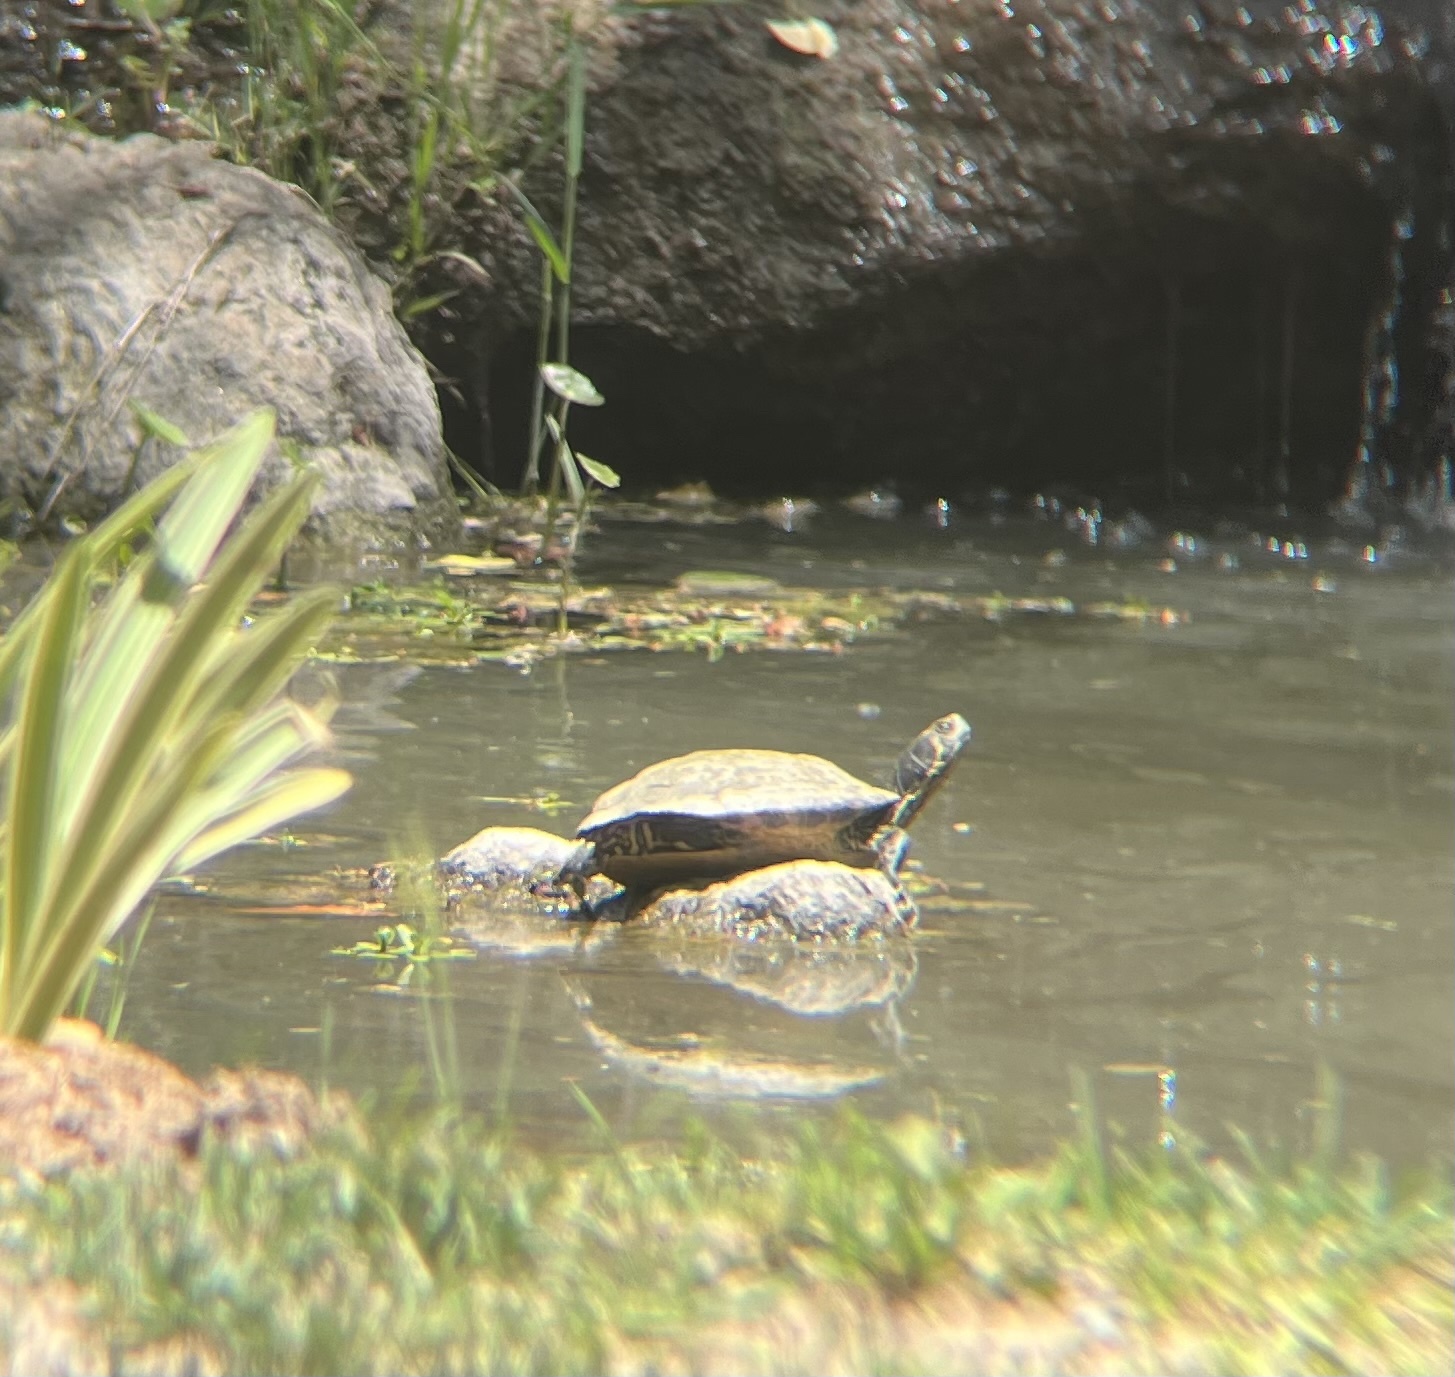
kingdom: Animalia
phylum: Chordata
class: Testudines
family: Emydidae
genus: Trachemys
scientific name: Trachemys scripta
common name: Slider
